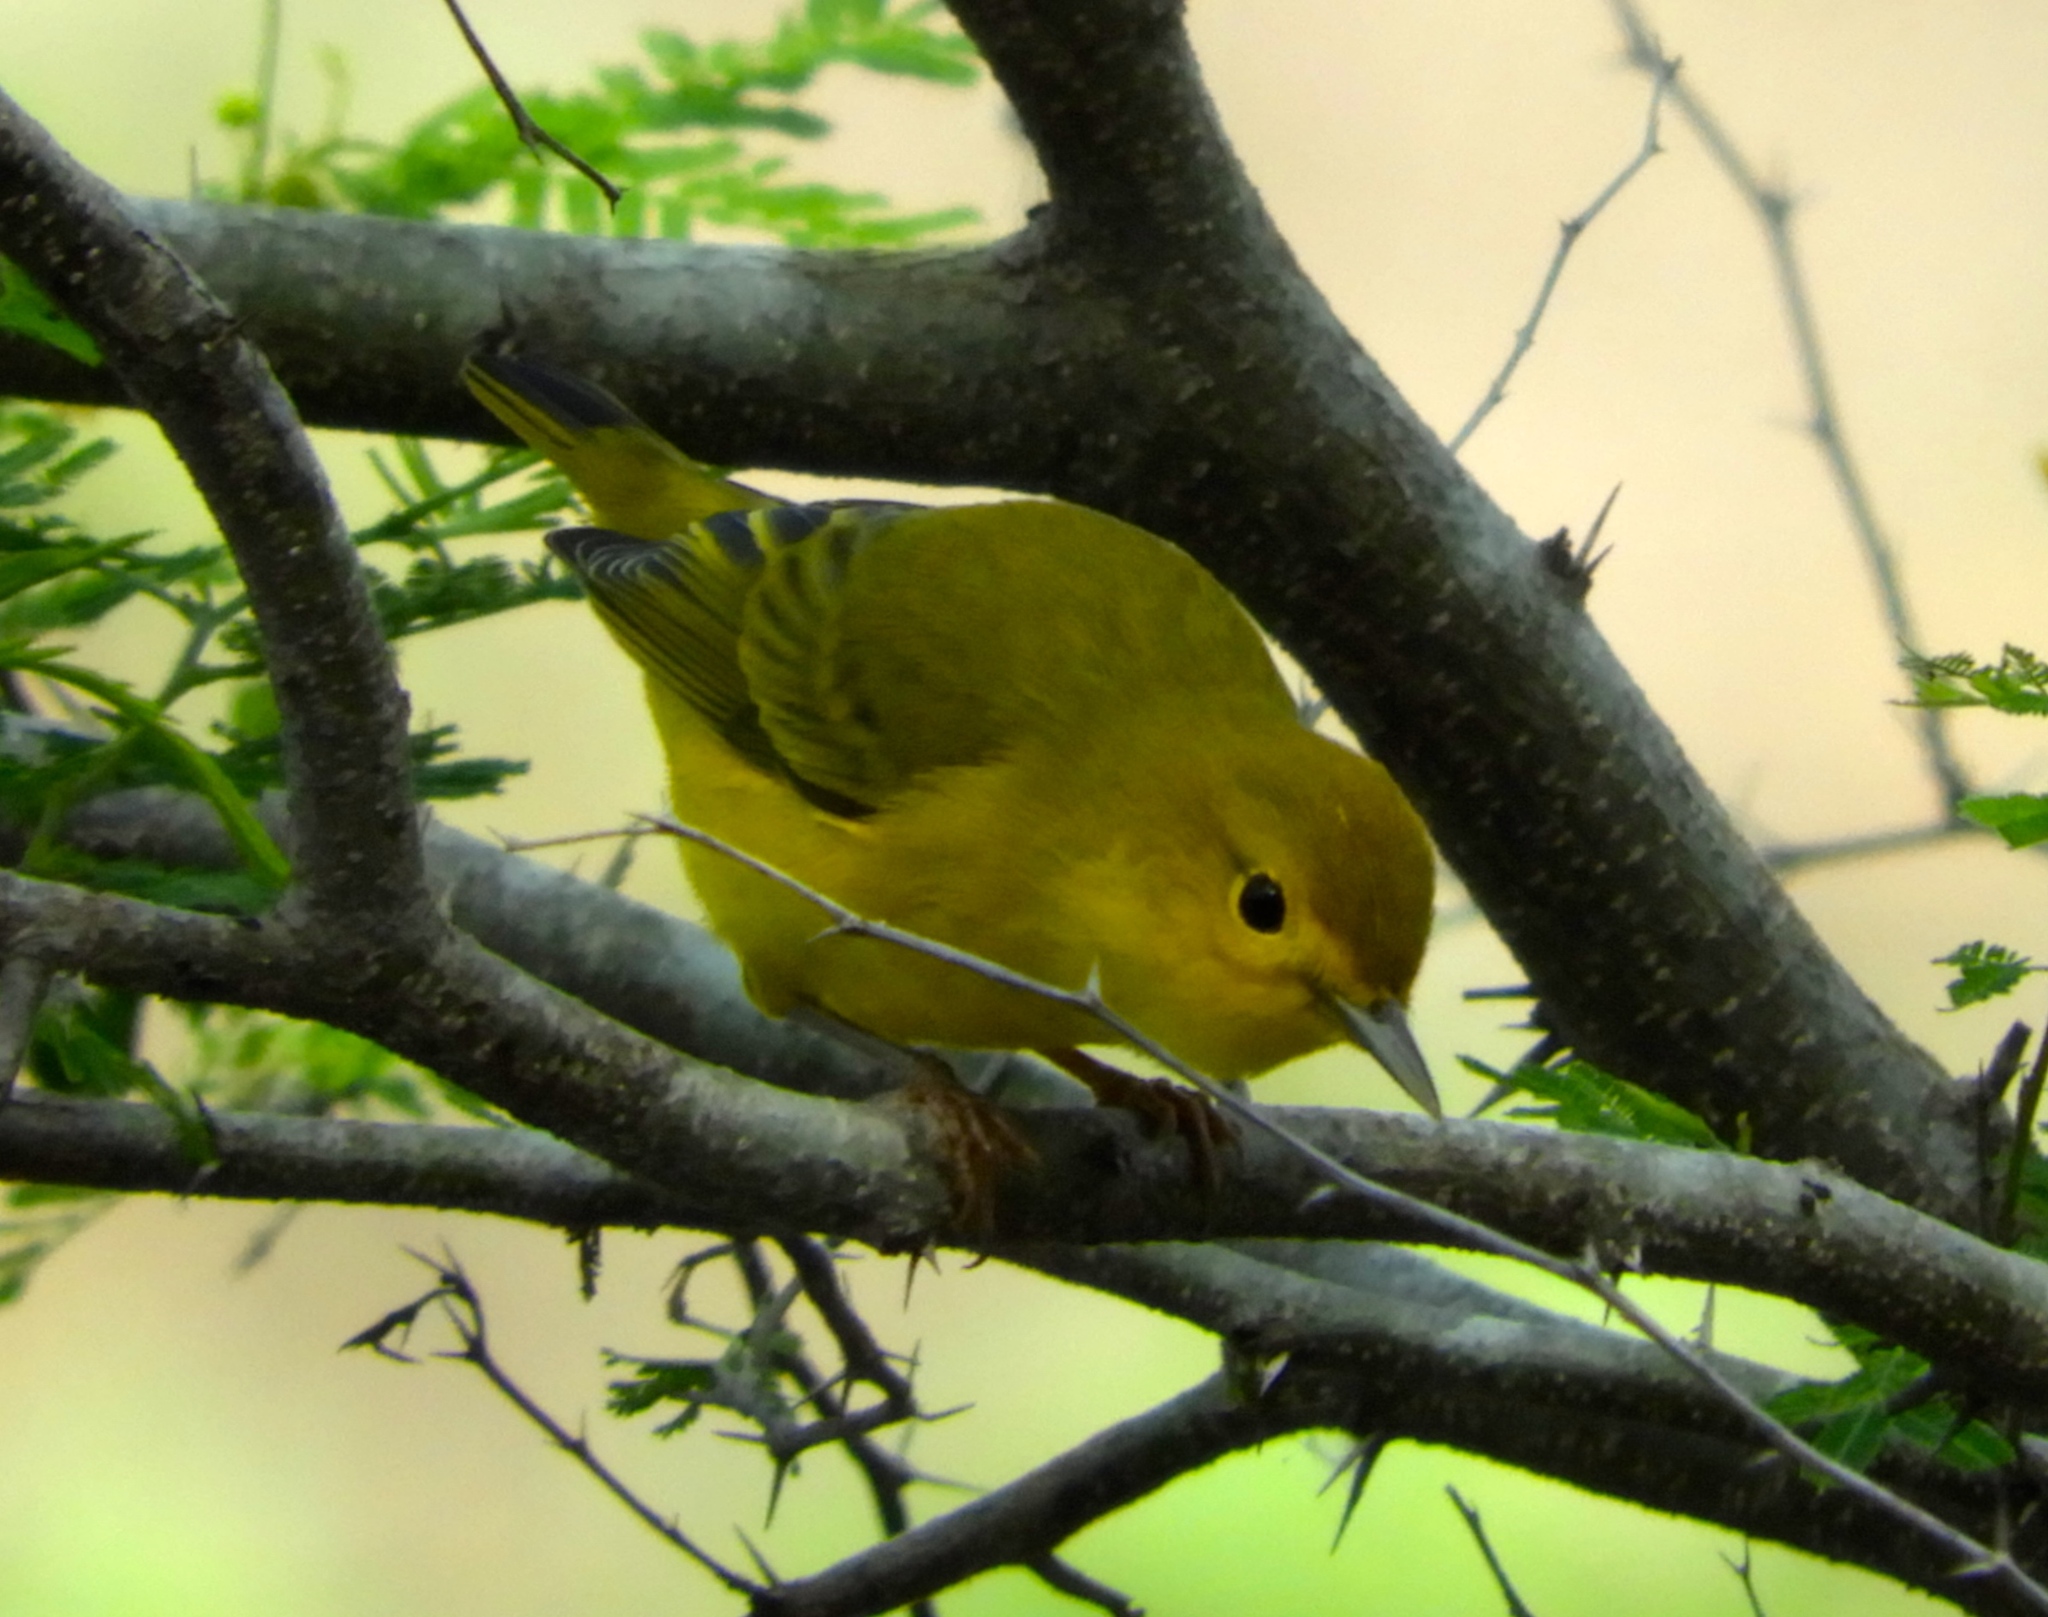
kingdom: Animalia
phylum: Chordata
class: Aves
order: Passeriformes
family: Parulidae
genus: Setophaga
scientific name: Setophaga petechia
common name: Yellow warbler
